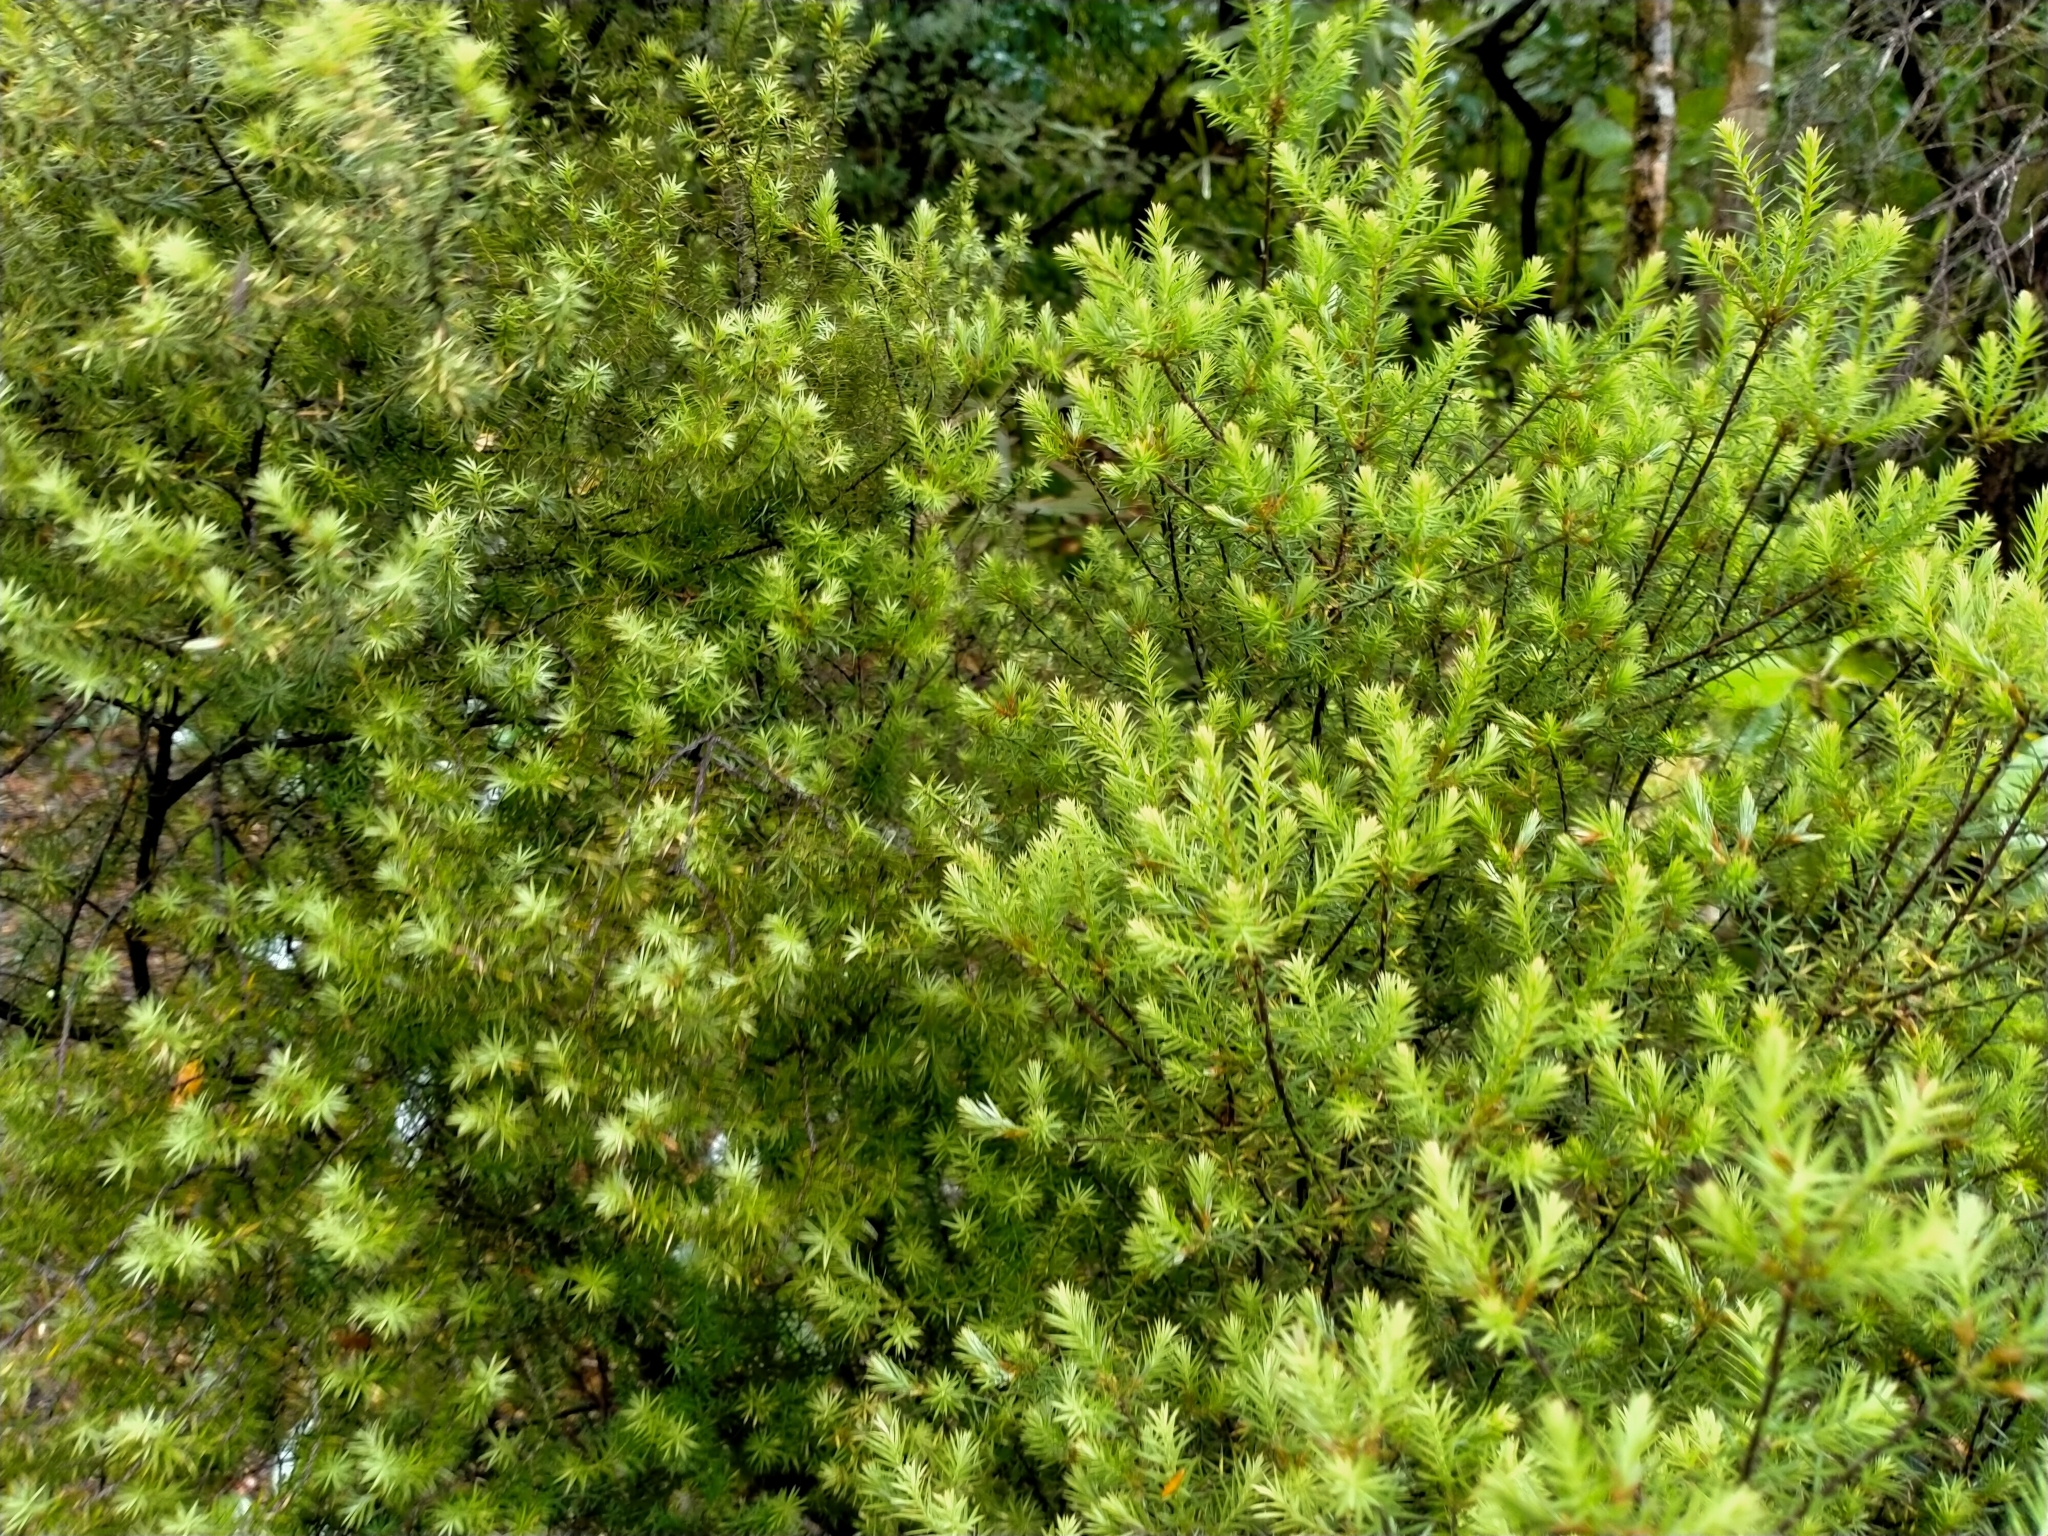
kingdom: Plantae
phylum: Tracheophyta
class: Magnoliopsida
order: Ericales
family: Ericaceae
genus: Leptecophylla
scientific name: Leptecophylla juniperina
